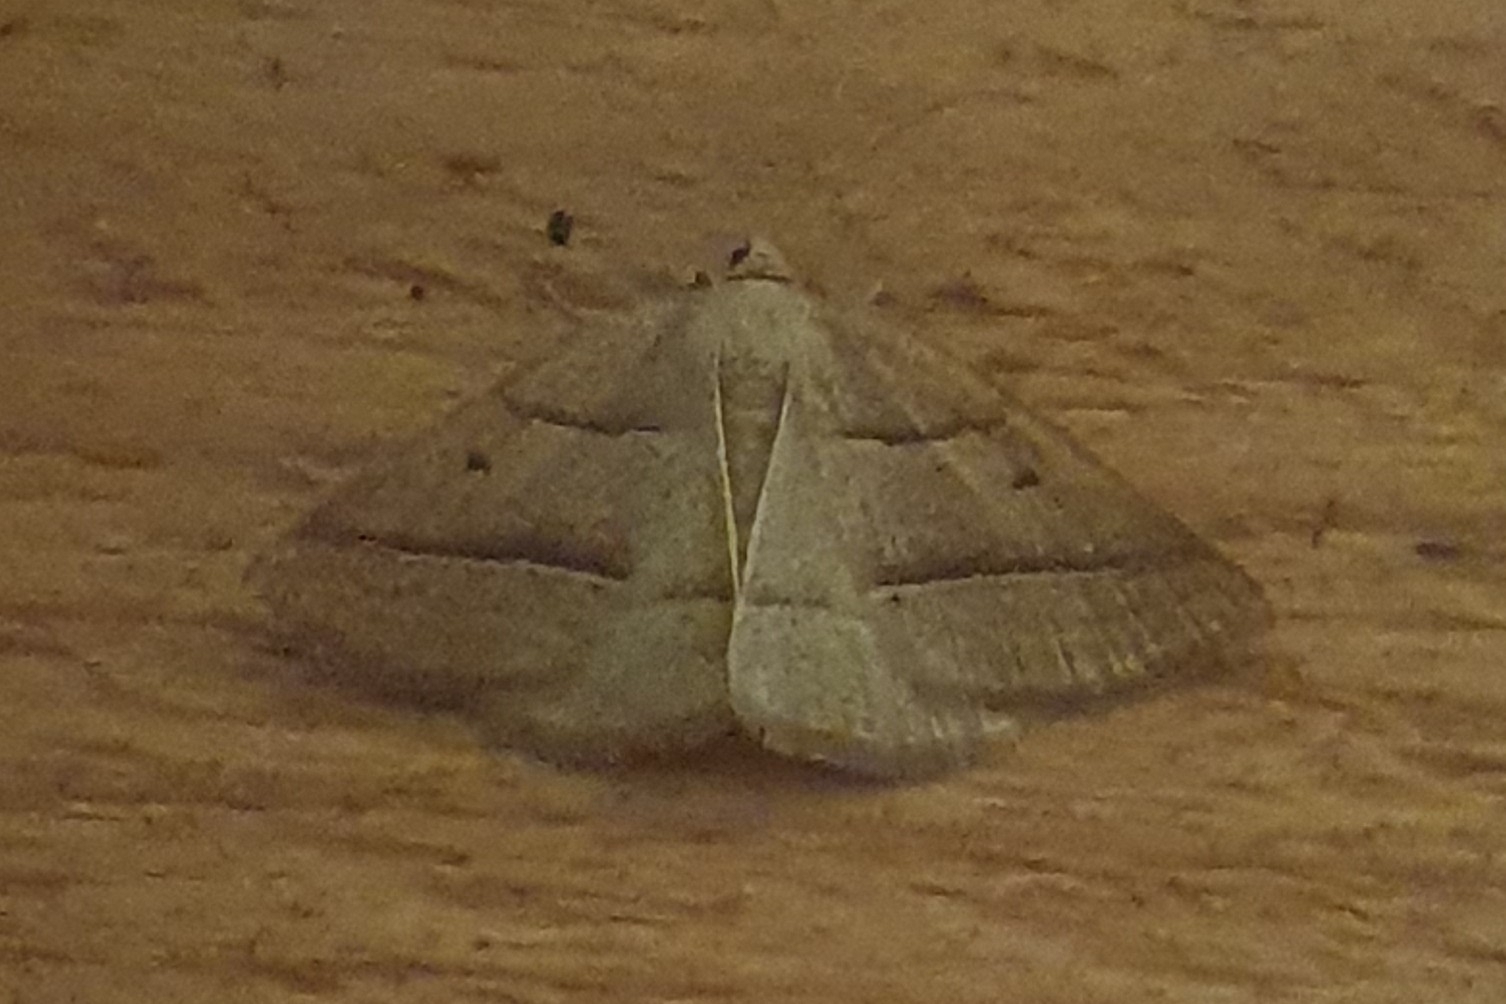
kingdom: Animalia
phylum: Arthropoda
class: Insecta
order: Lepidoptera
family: Pterophoridae
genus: Pterophorus
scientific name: Pterophorus Petrophora chlorosata
